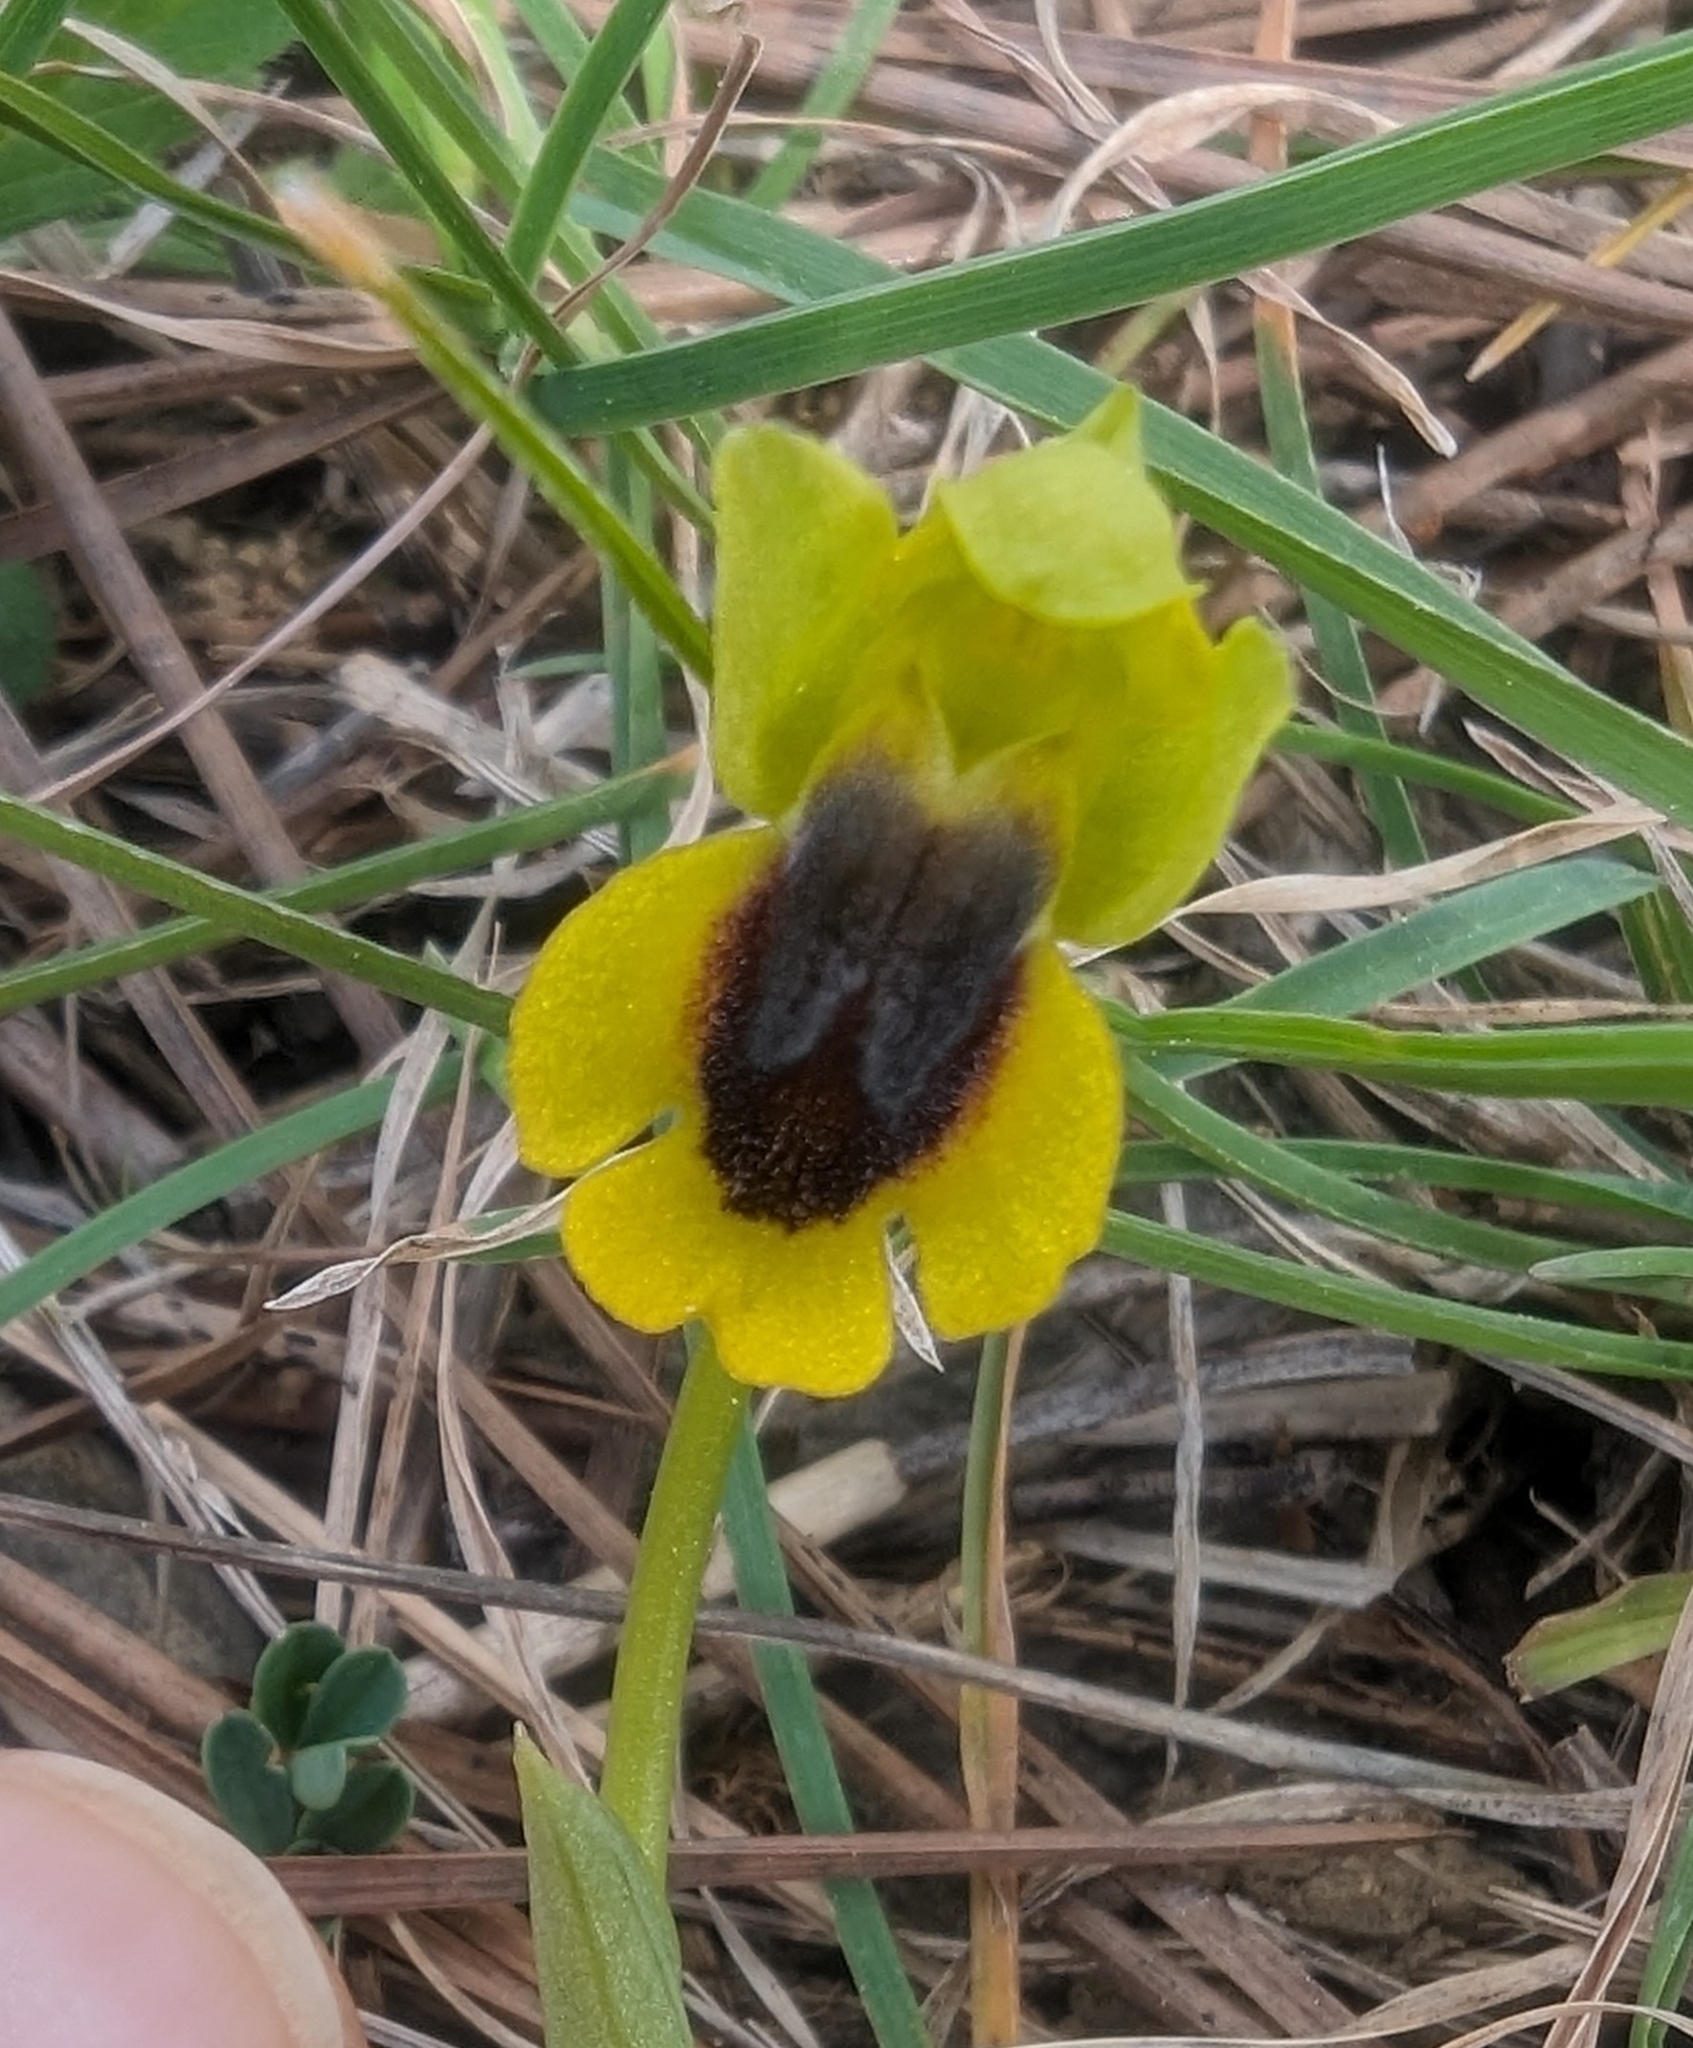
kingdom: Plantae
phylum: Tracheophyta
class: Liliopsida
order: Asparagales
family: Orchidaceae
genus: Ophrys
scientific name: Ophrys lutea
